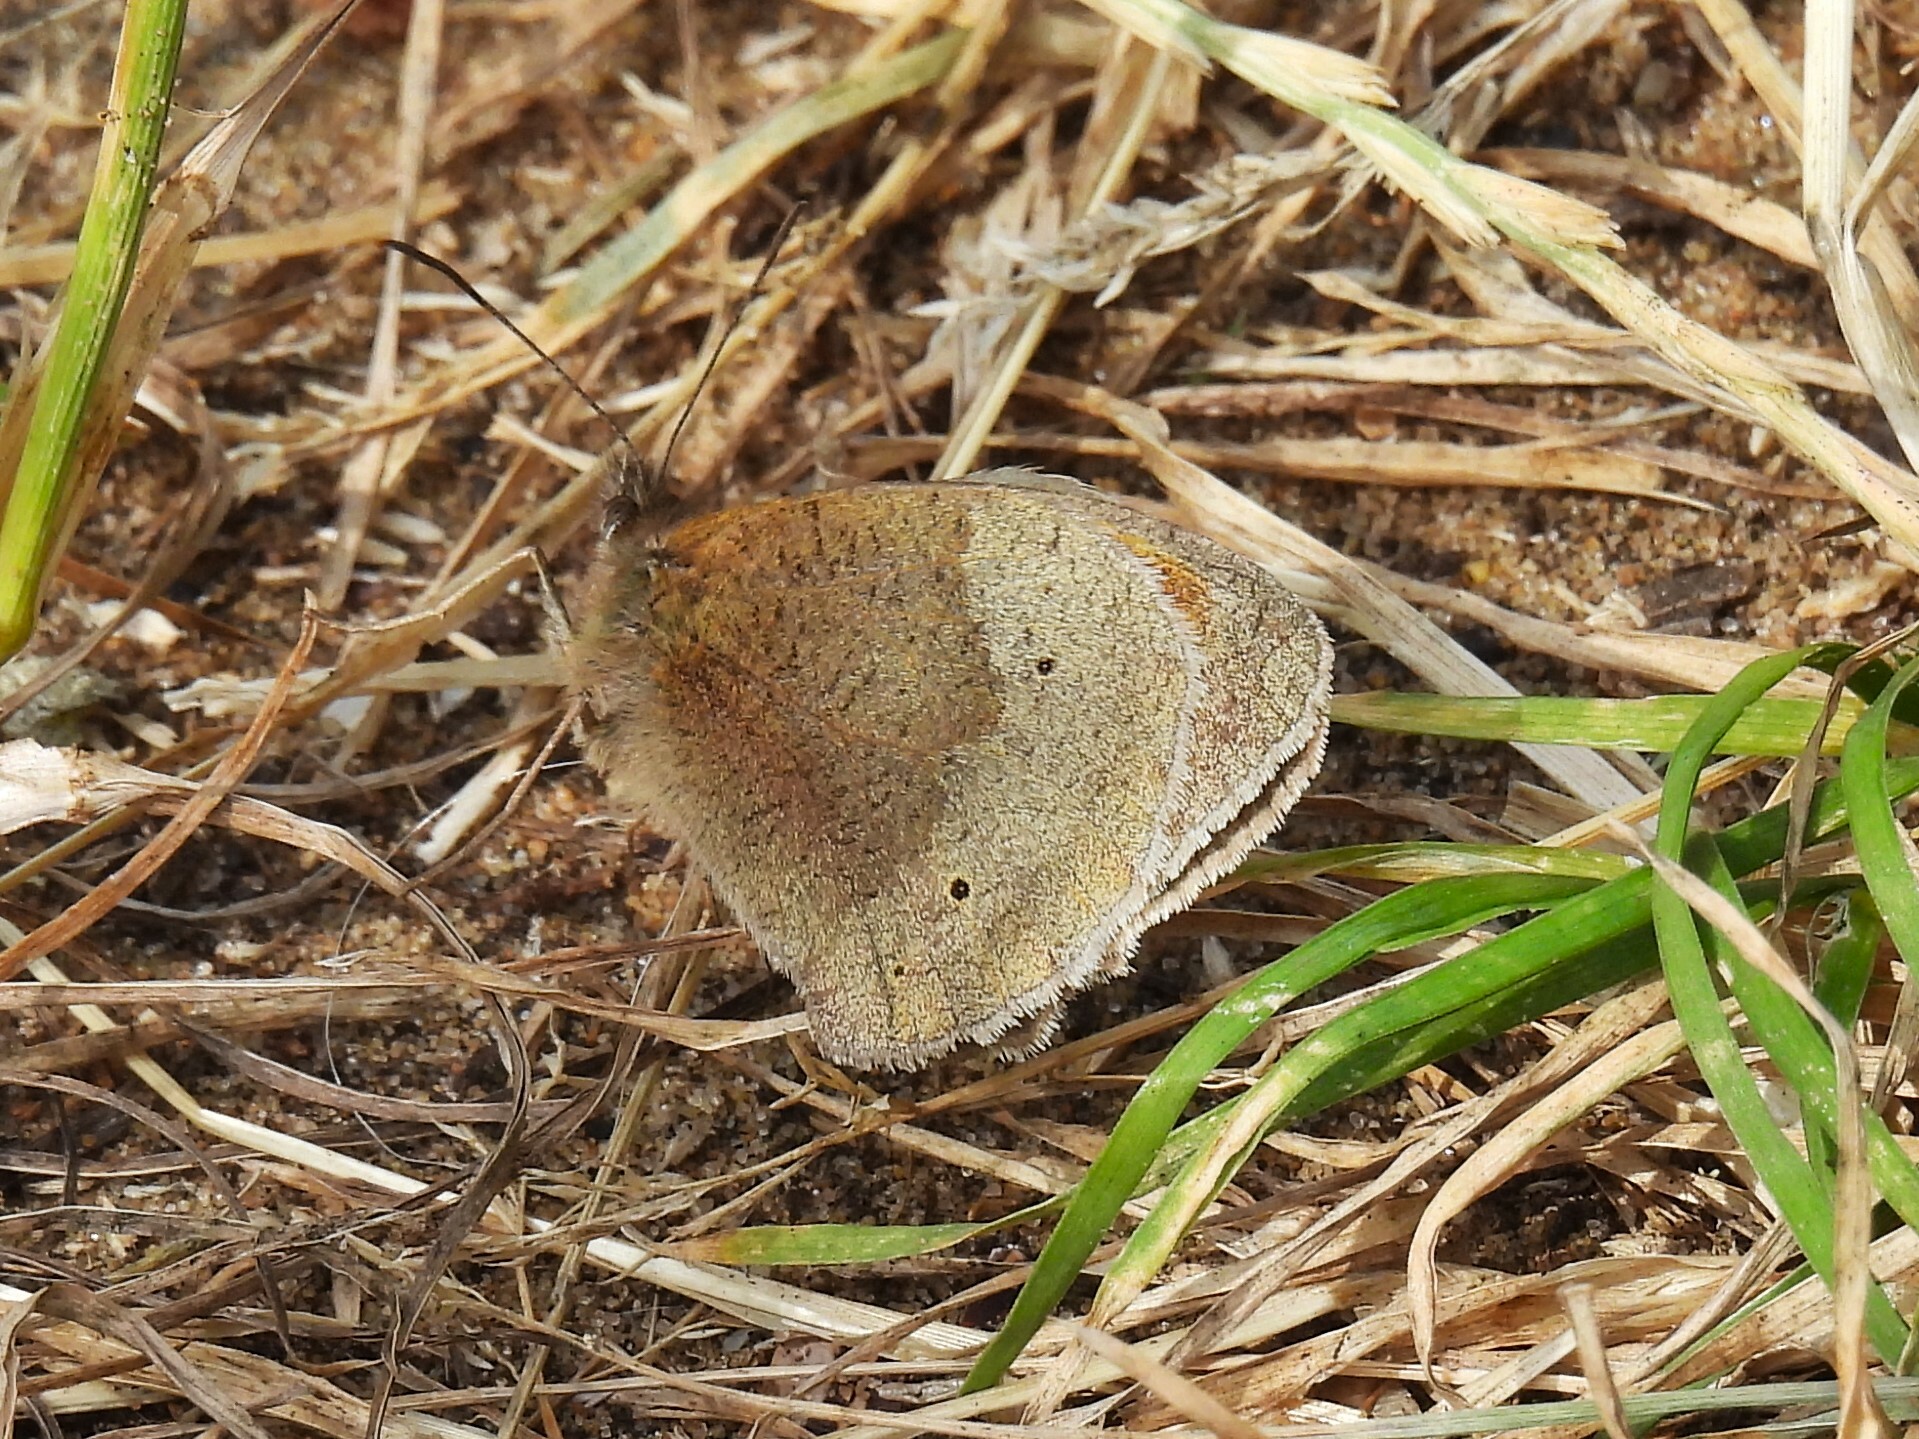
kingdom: Animalia
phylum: Arthropoda
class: Insecta
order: Lepidoptera
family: Nymphalidae
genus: Maniola
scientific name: Maniola jurtina
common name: Meadow brown
